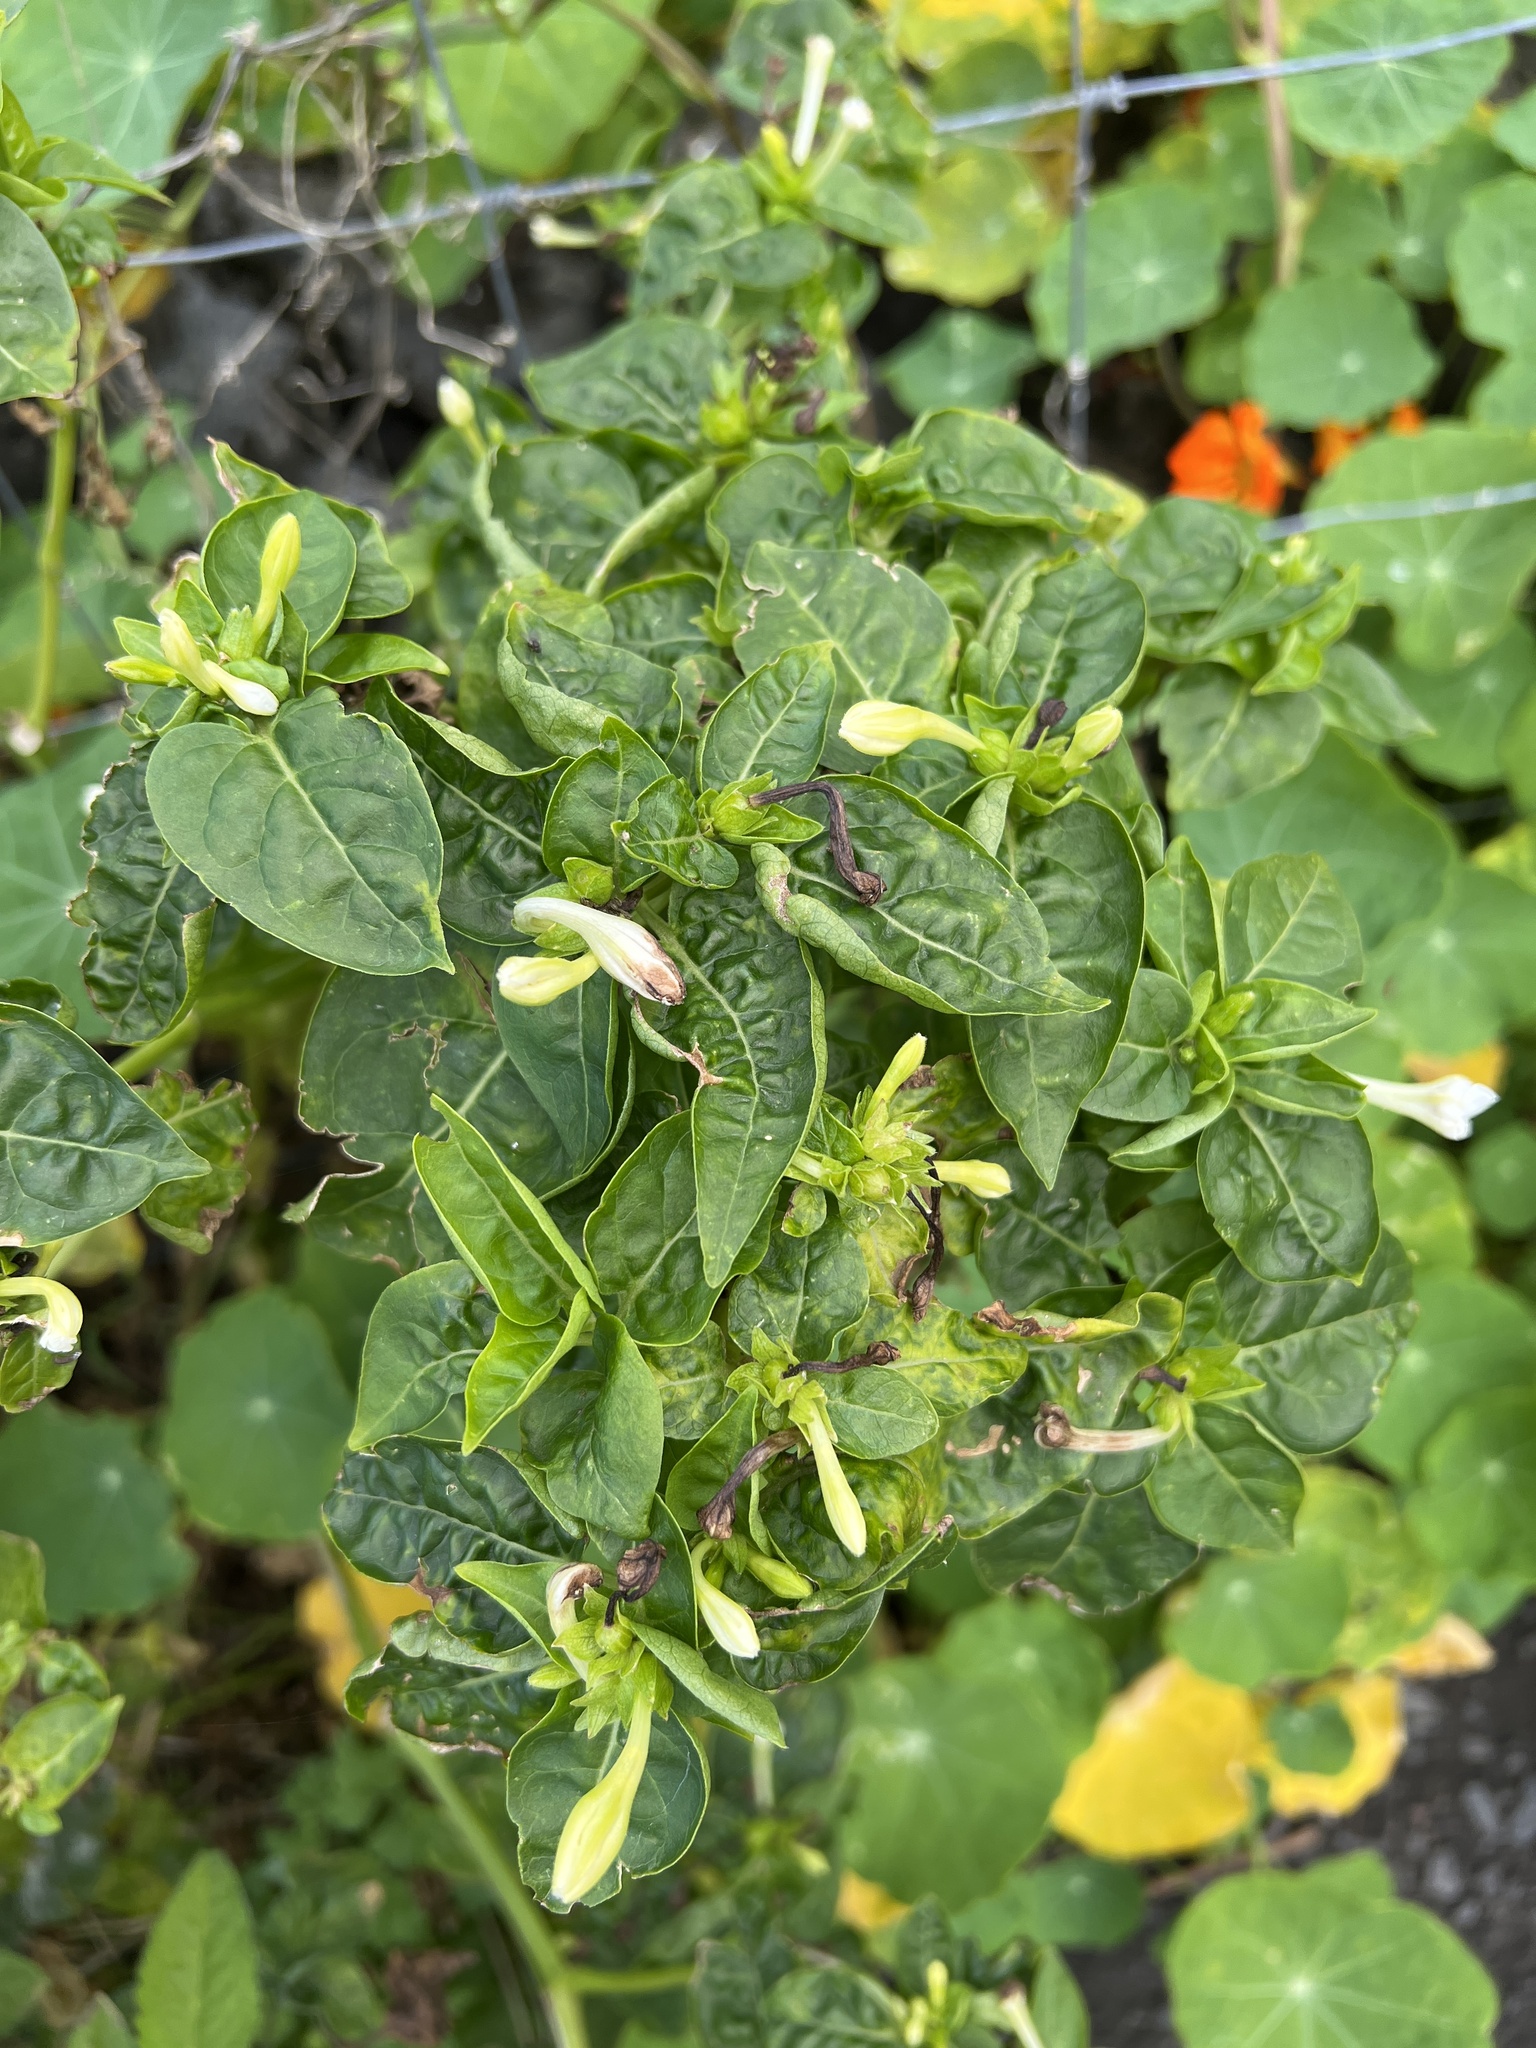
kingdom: Plantae
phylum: Tracheophyta
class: Magnoliopsida
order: Caryophyllales
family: Nyctaginaceae
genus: Mirabilis
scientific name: Mirabilis jalapa
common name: Marvel-of-peru
